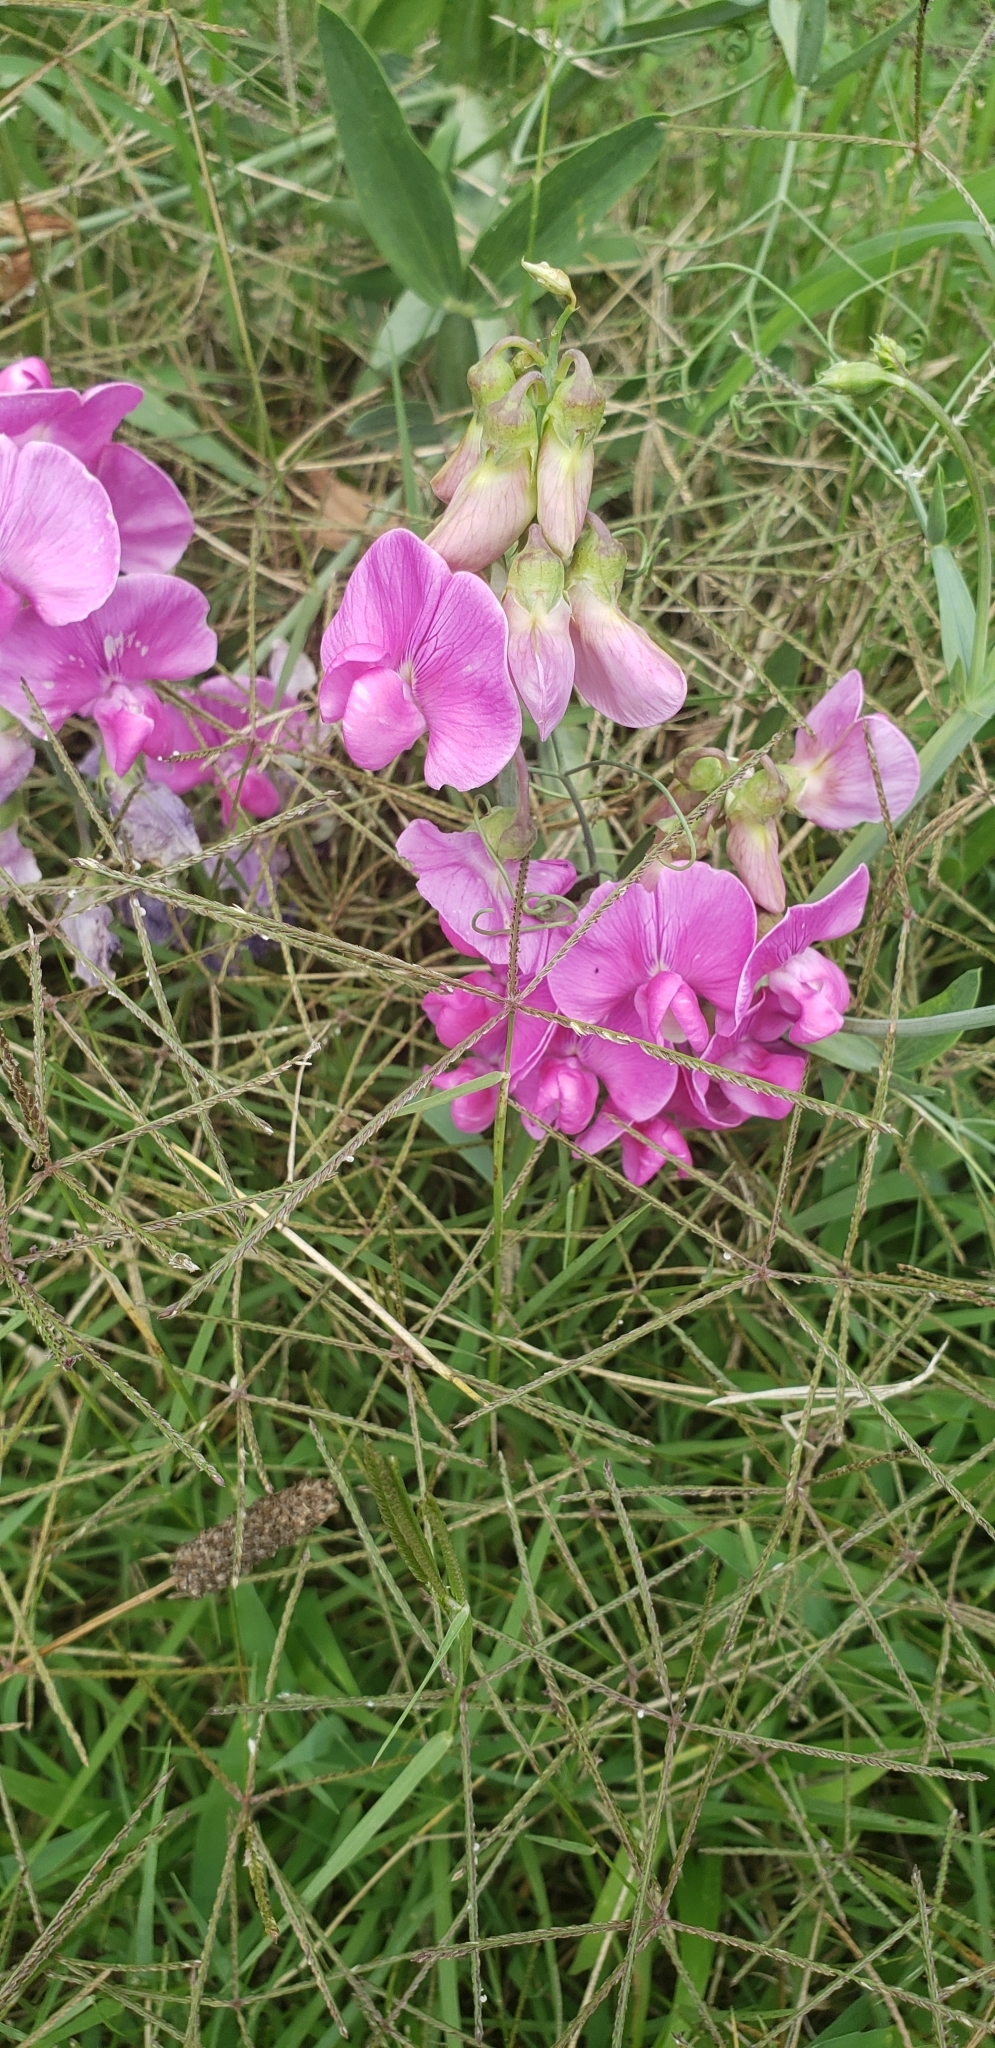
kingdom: Plantae
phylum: Tracheophyta
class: Magnoliopsida
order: Fabales
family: Fabaceae
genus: Lathyrus
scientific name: Lathyrus latifolius
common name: Perennial pea
